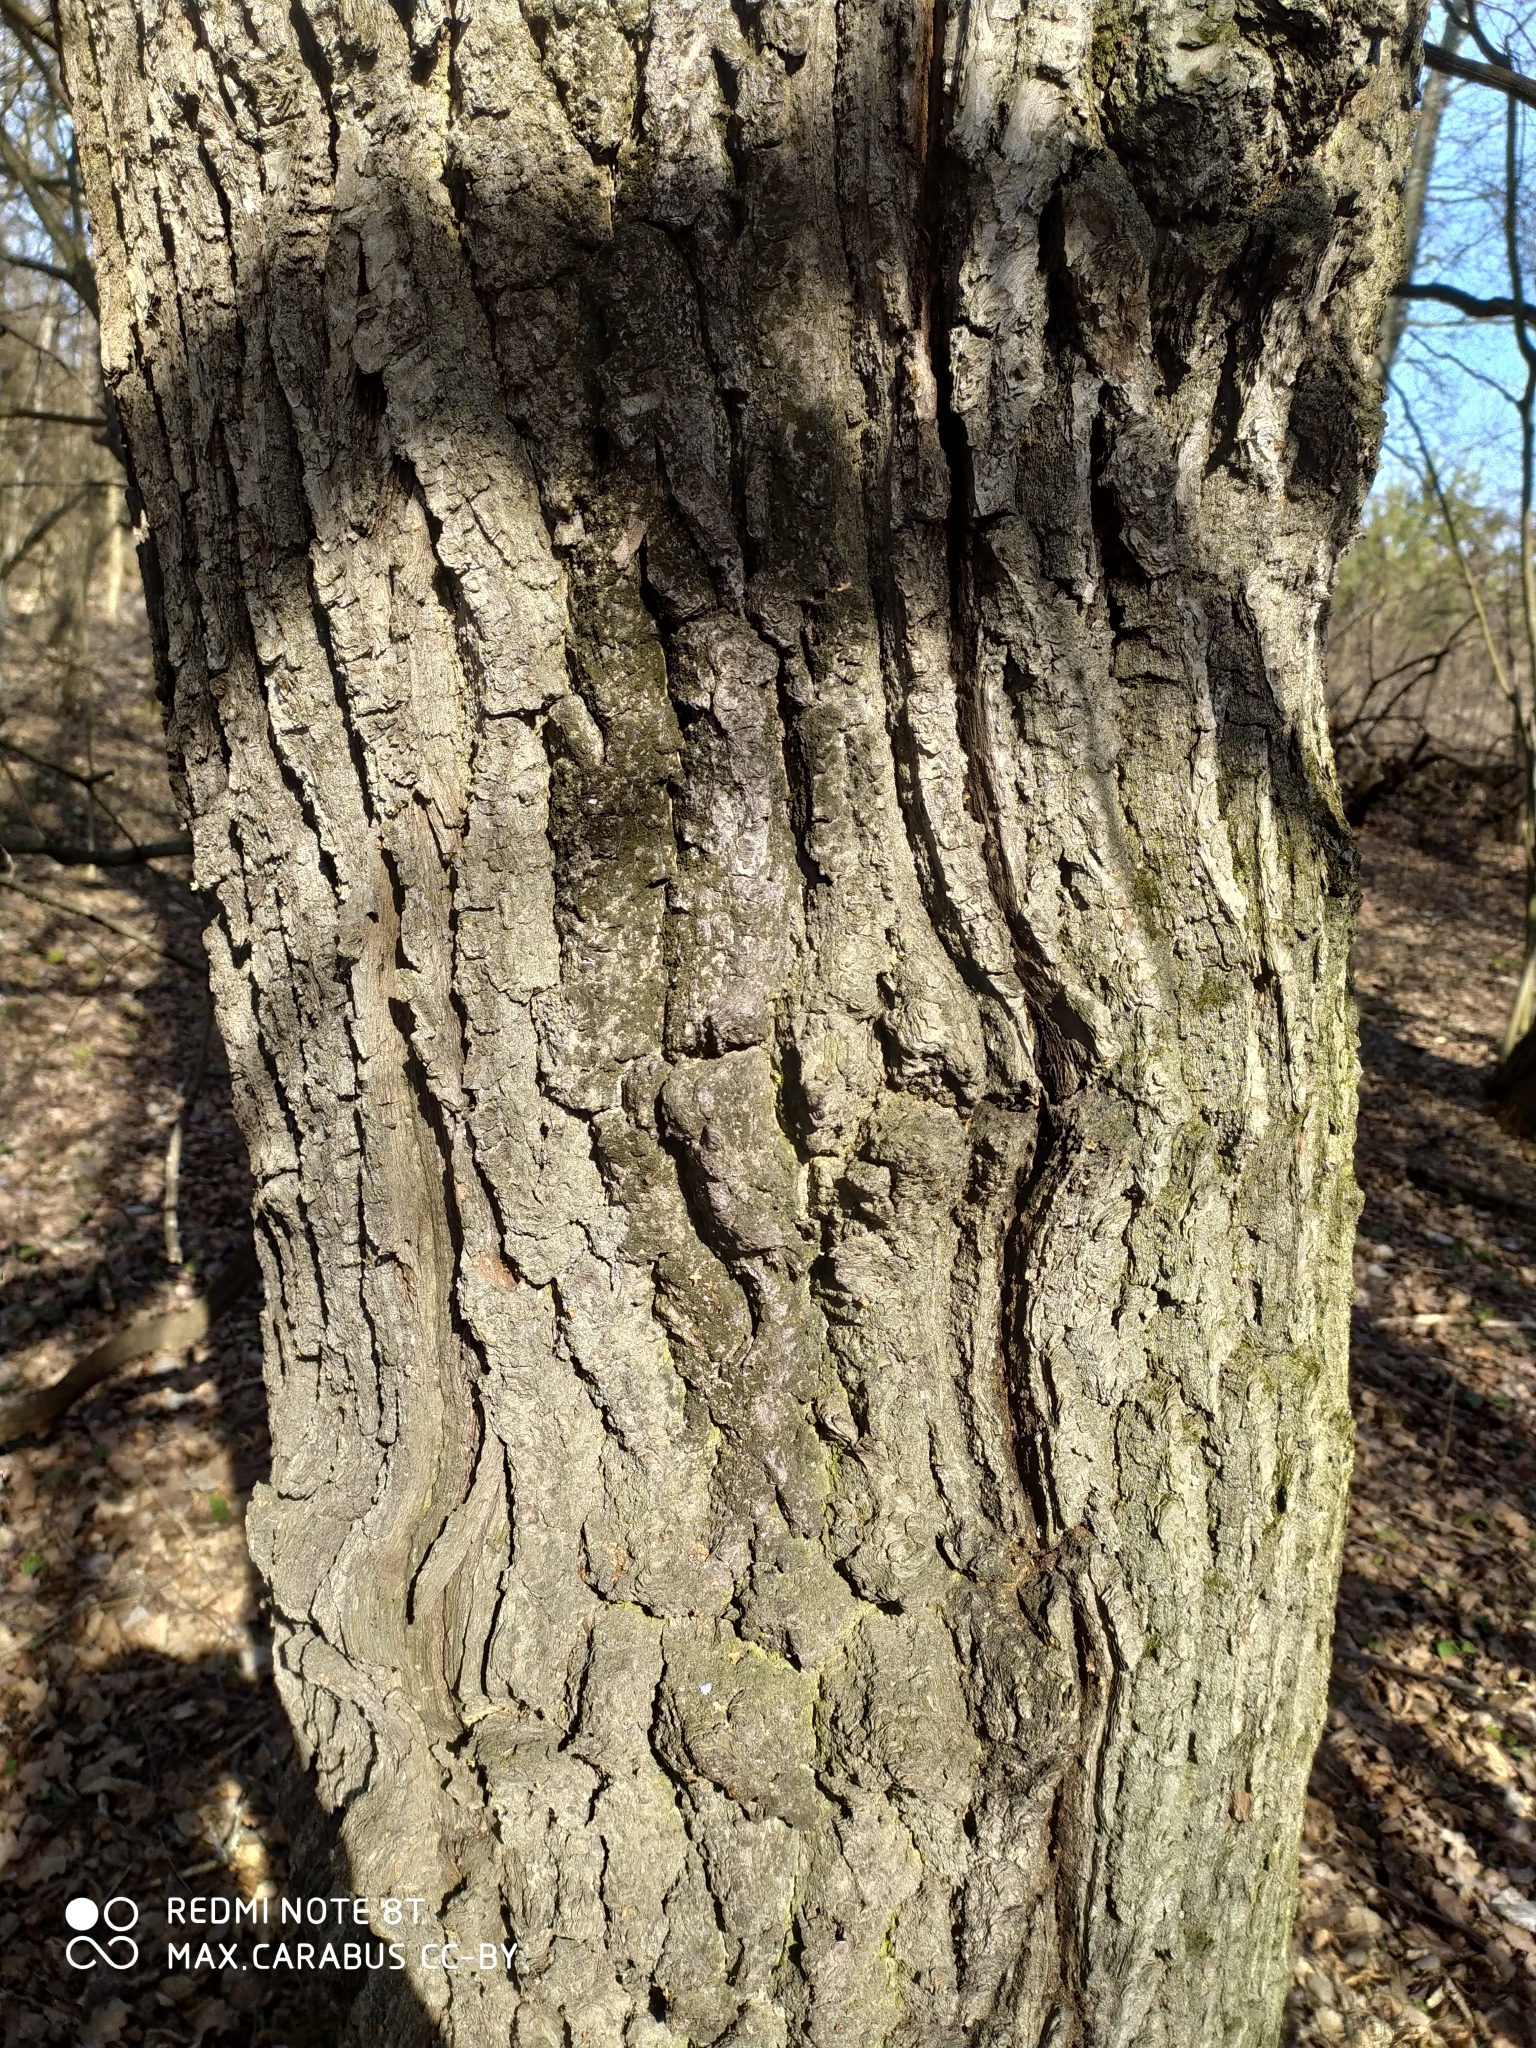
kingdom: Plantae
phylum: Tracheophyta
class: Magnoliopsida
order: Fagales
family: Fagaceae
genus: Quercus
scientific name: Quercus robur
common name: Pedunculate oak
